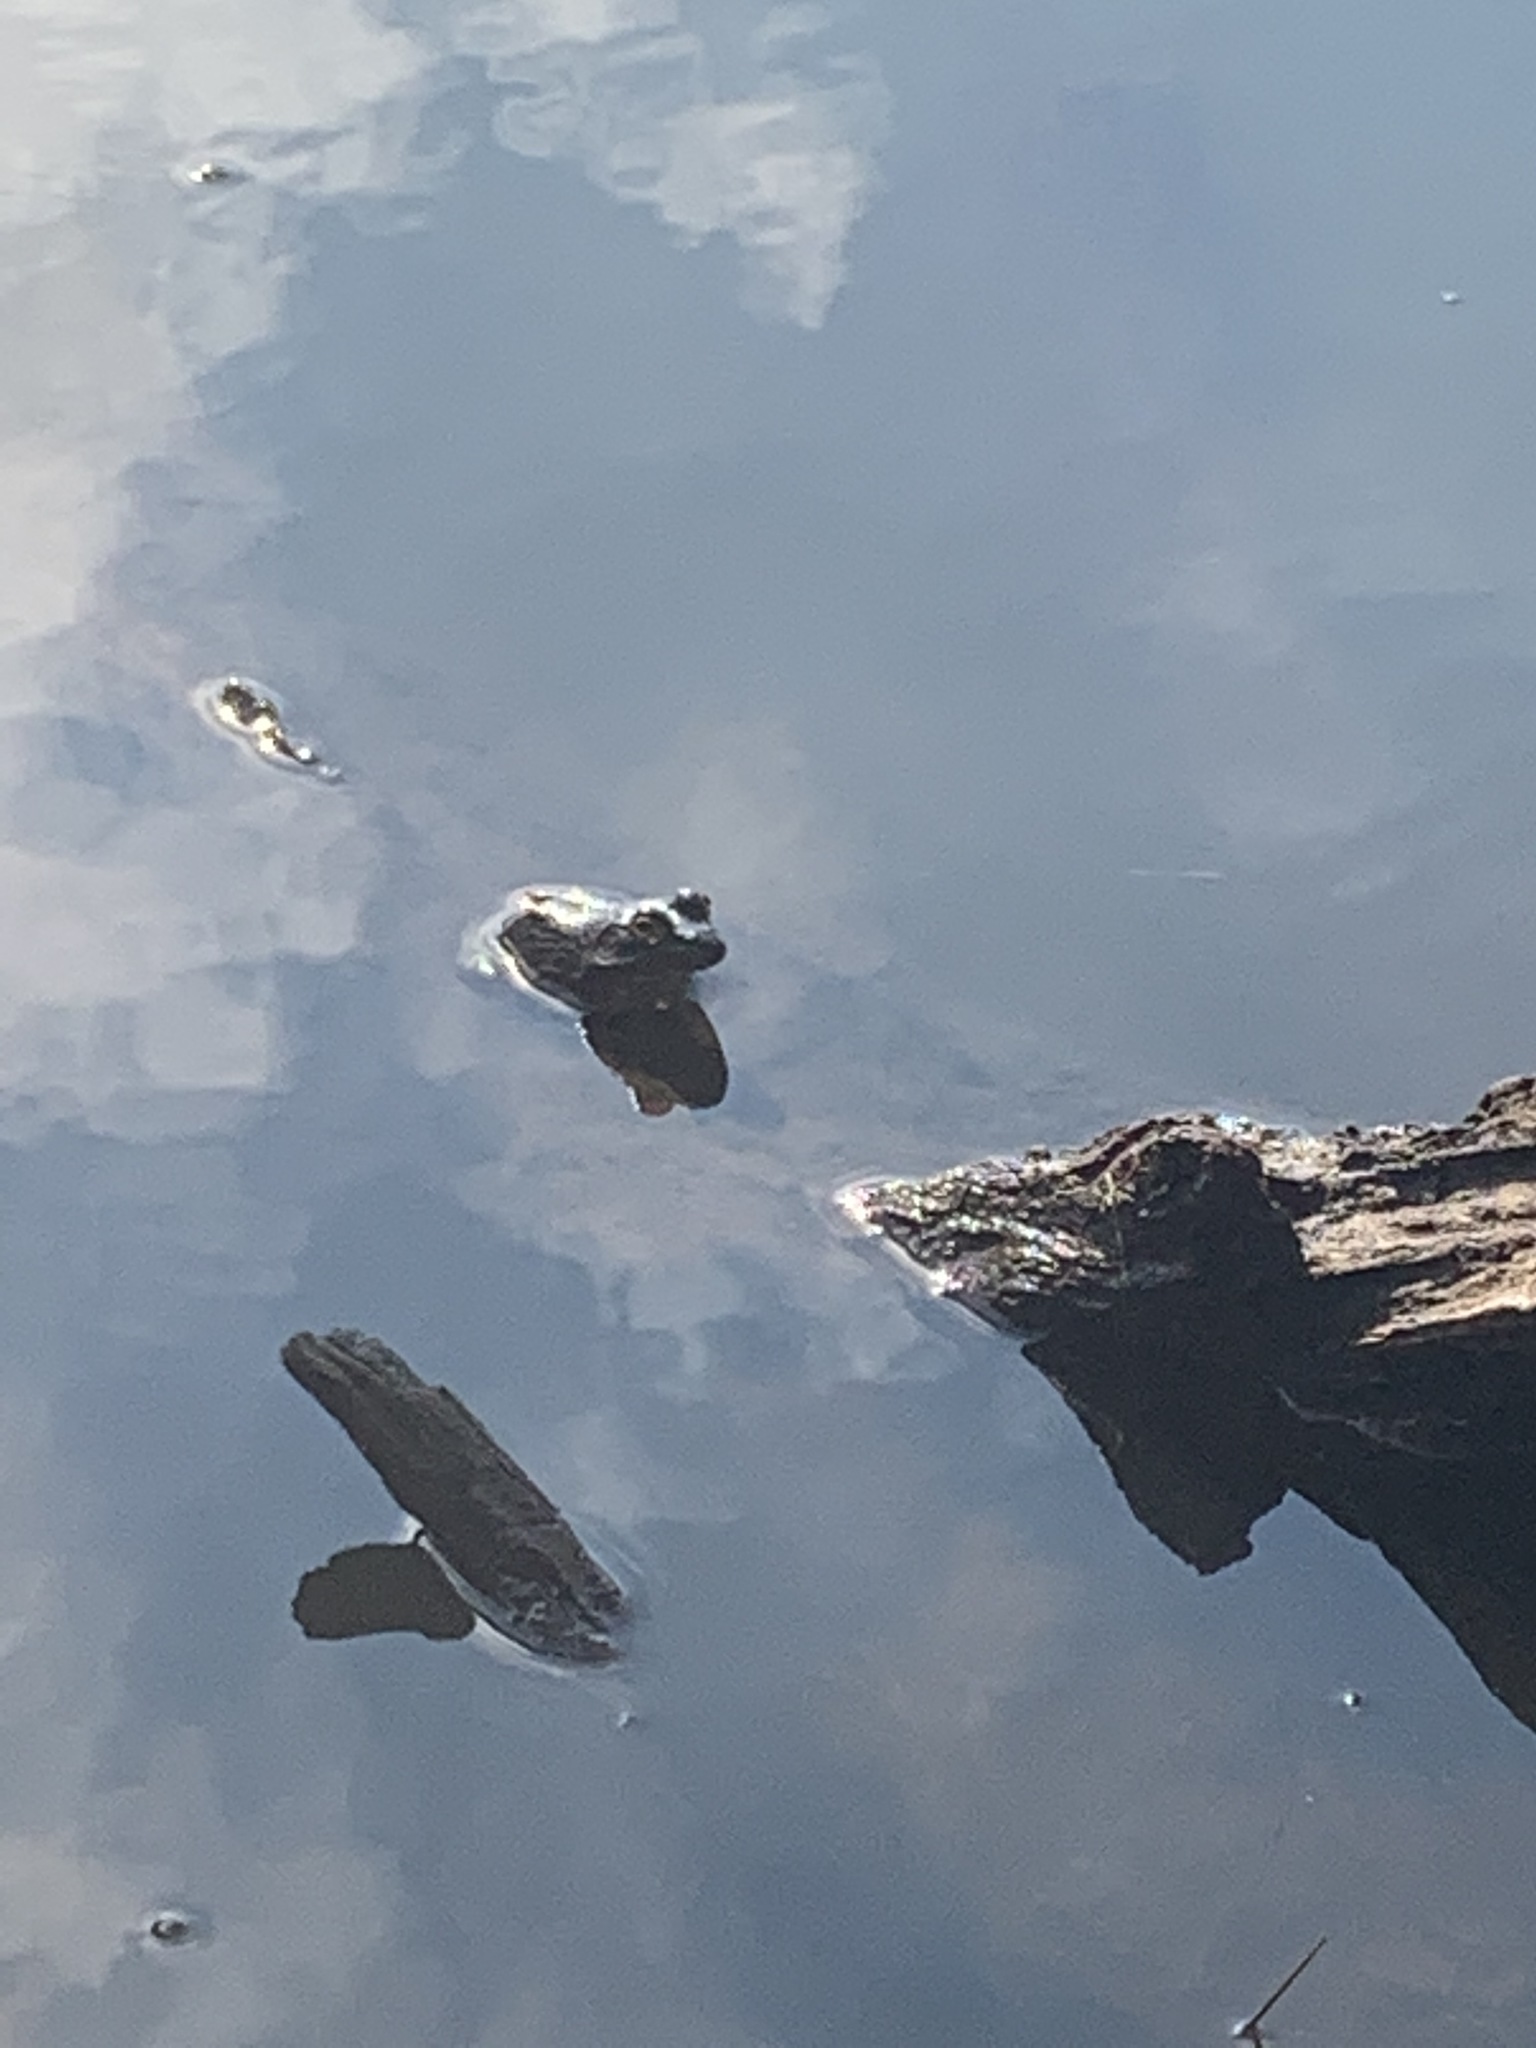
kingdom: Animalia
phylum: Chordata
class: Amphibia
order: Anura
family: Ranidae
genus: Lithobates
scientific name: Lithobates catesbeianus
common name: American bullfrog
